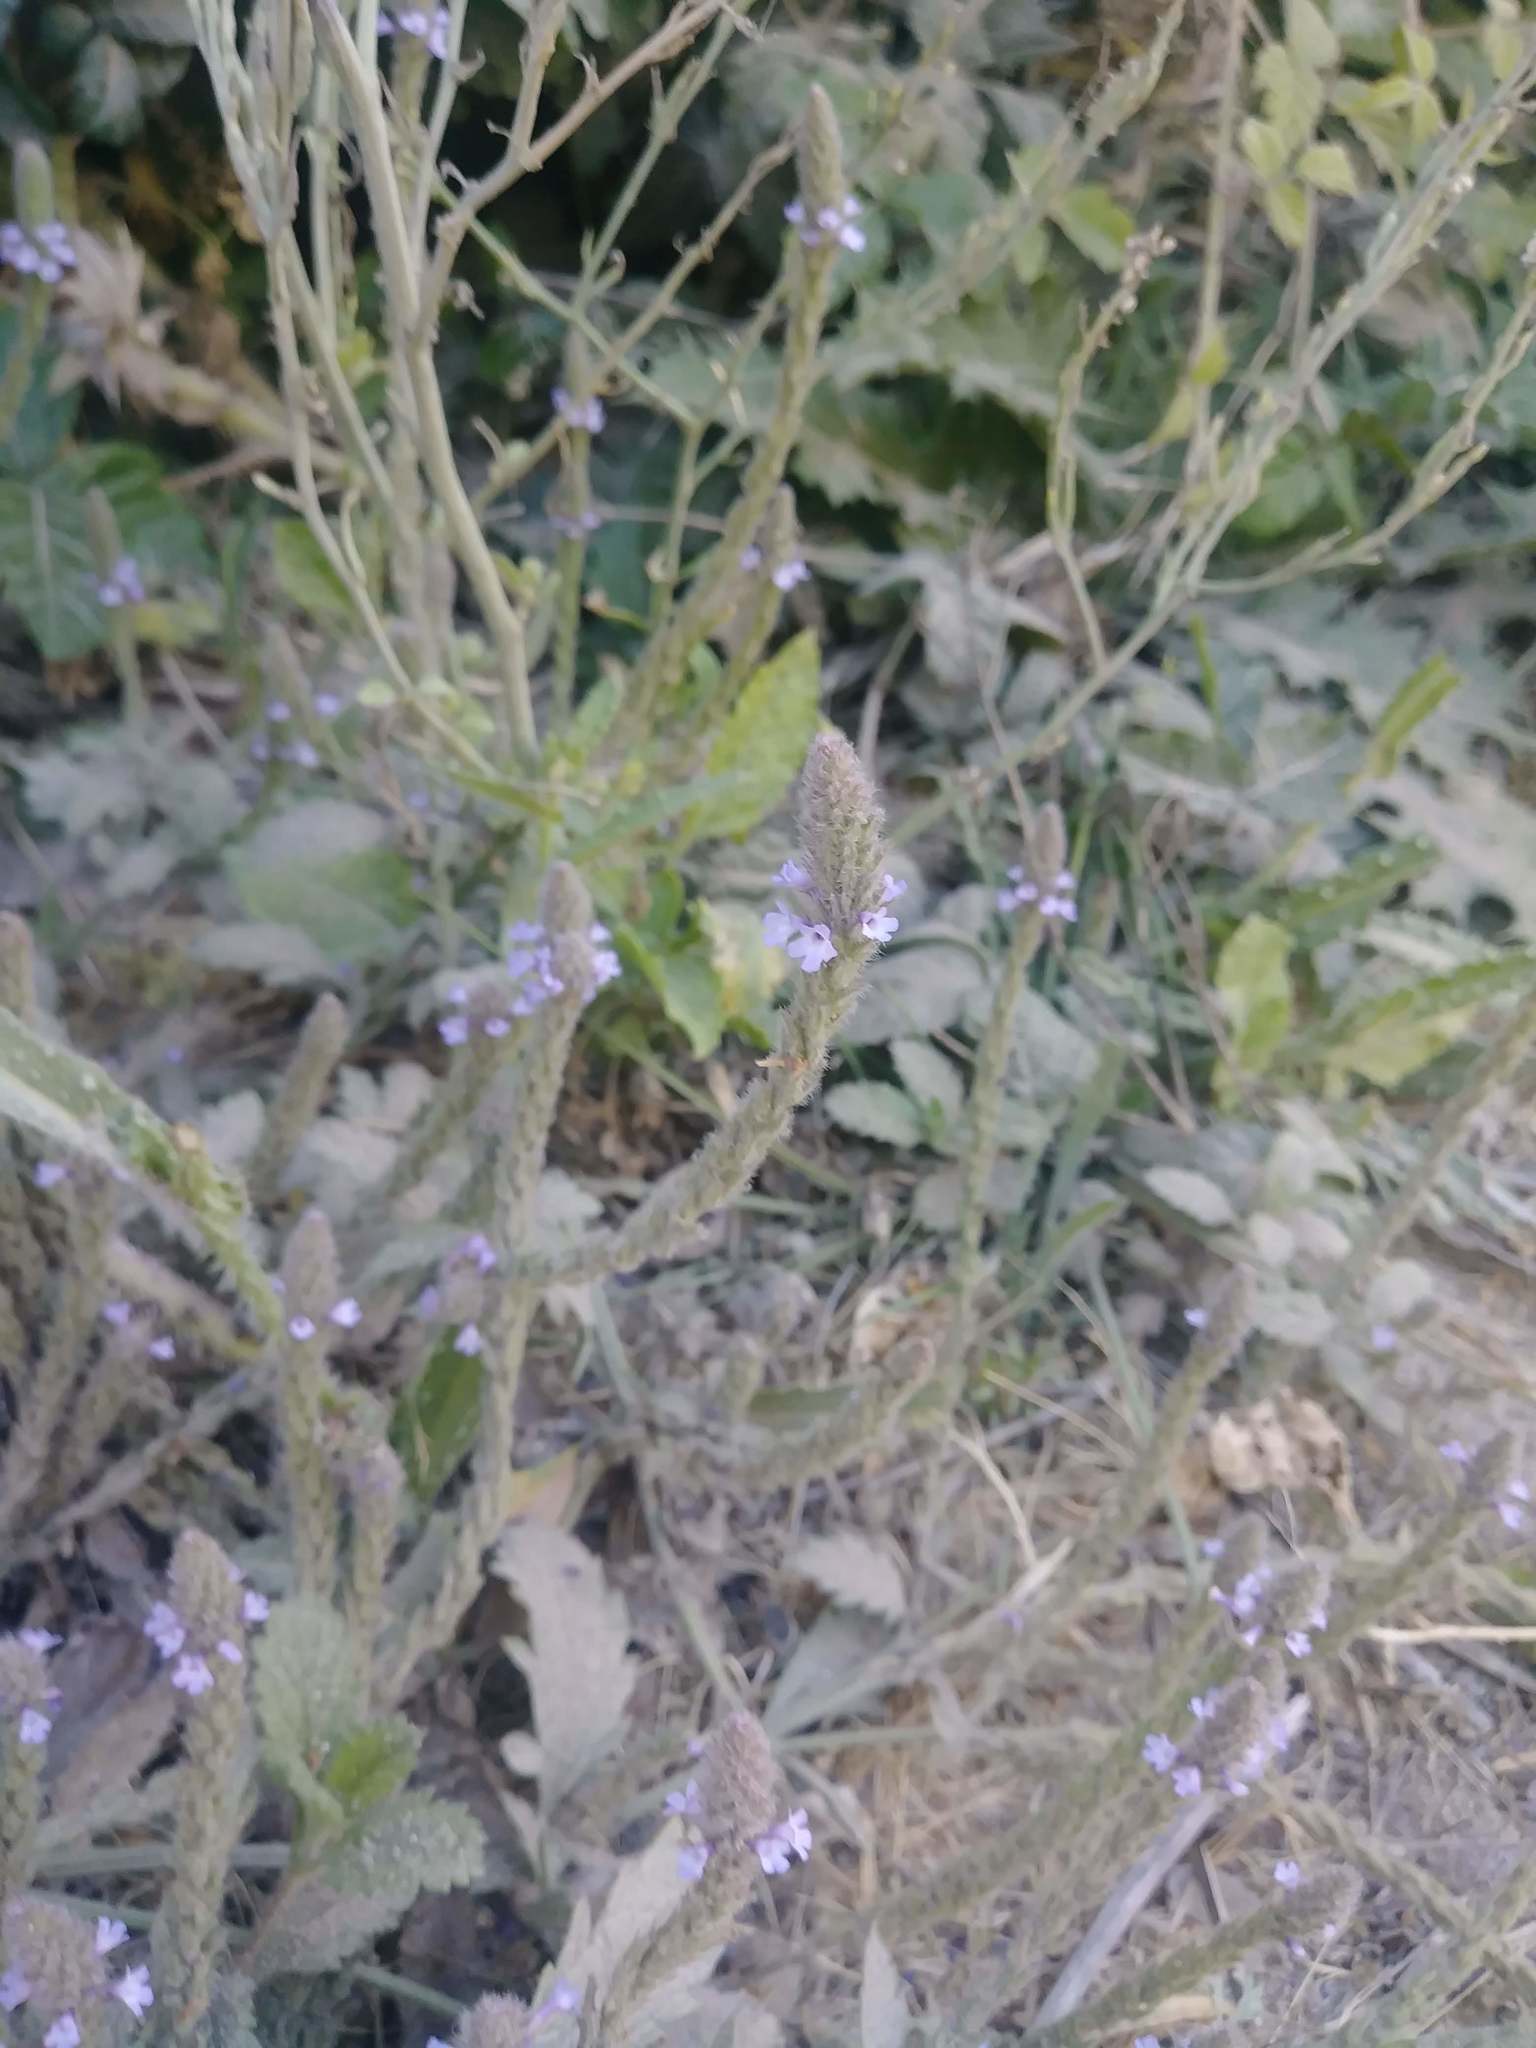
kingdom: Plantae
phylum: Tracheophyta
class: Magnoliopsida
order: Lamiales
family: Verbenaceae
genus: Verbena
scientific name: Verbena lasiostachys
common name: Vervain
